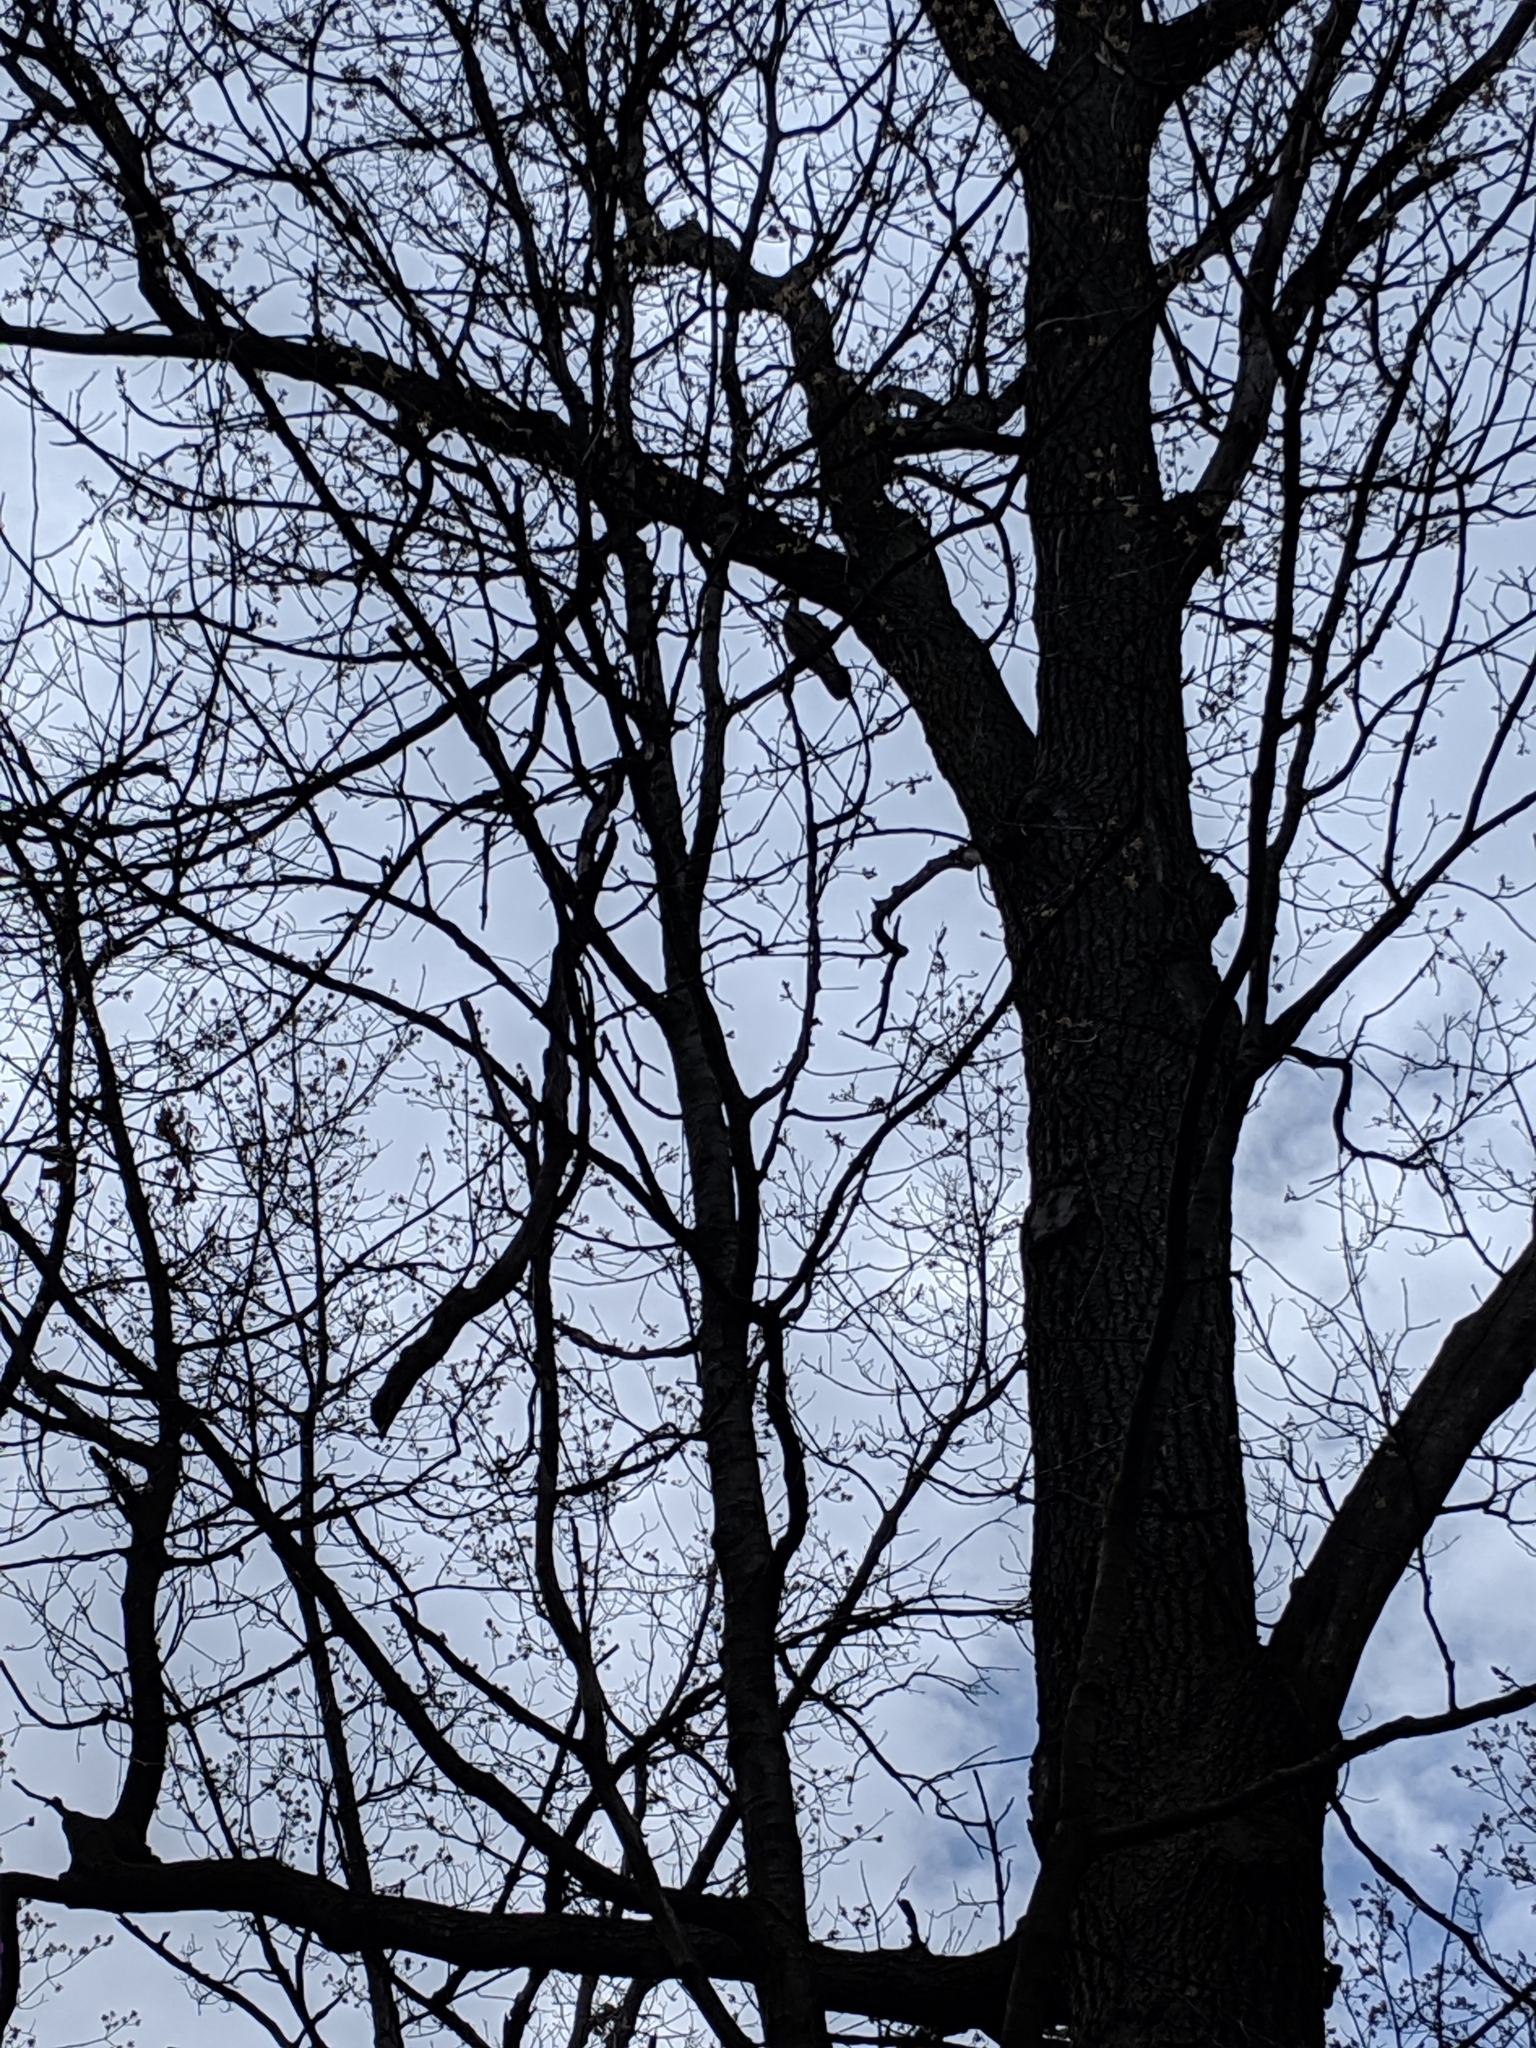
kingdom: Animalia
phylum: Chordata
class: Aves
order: Anseriformes
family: Anatidae
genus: Aix
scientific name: Aix sponsa
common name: Wood duck
